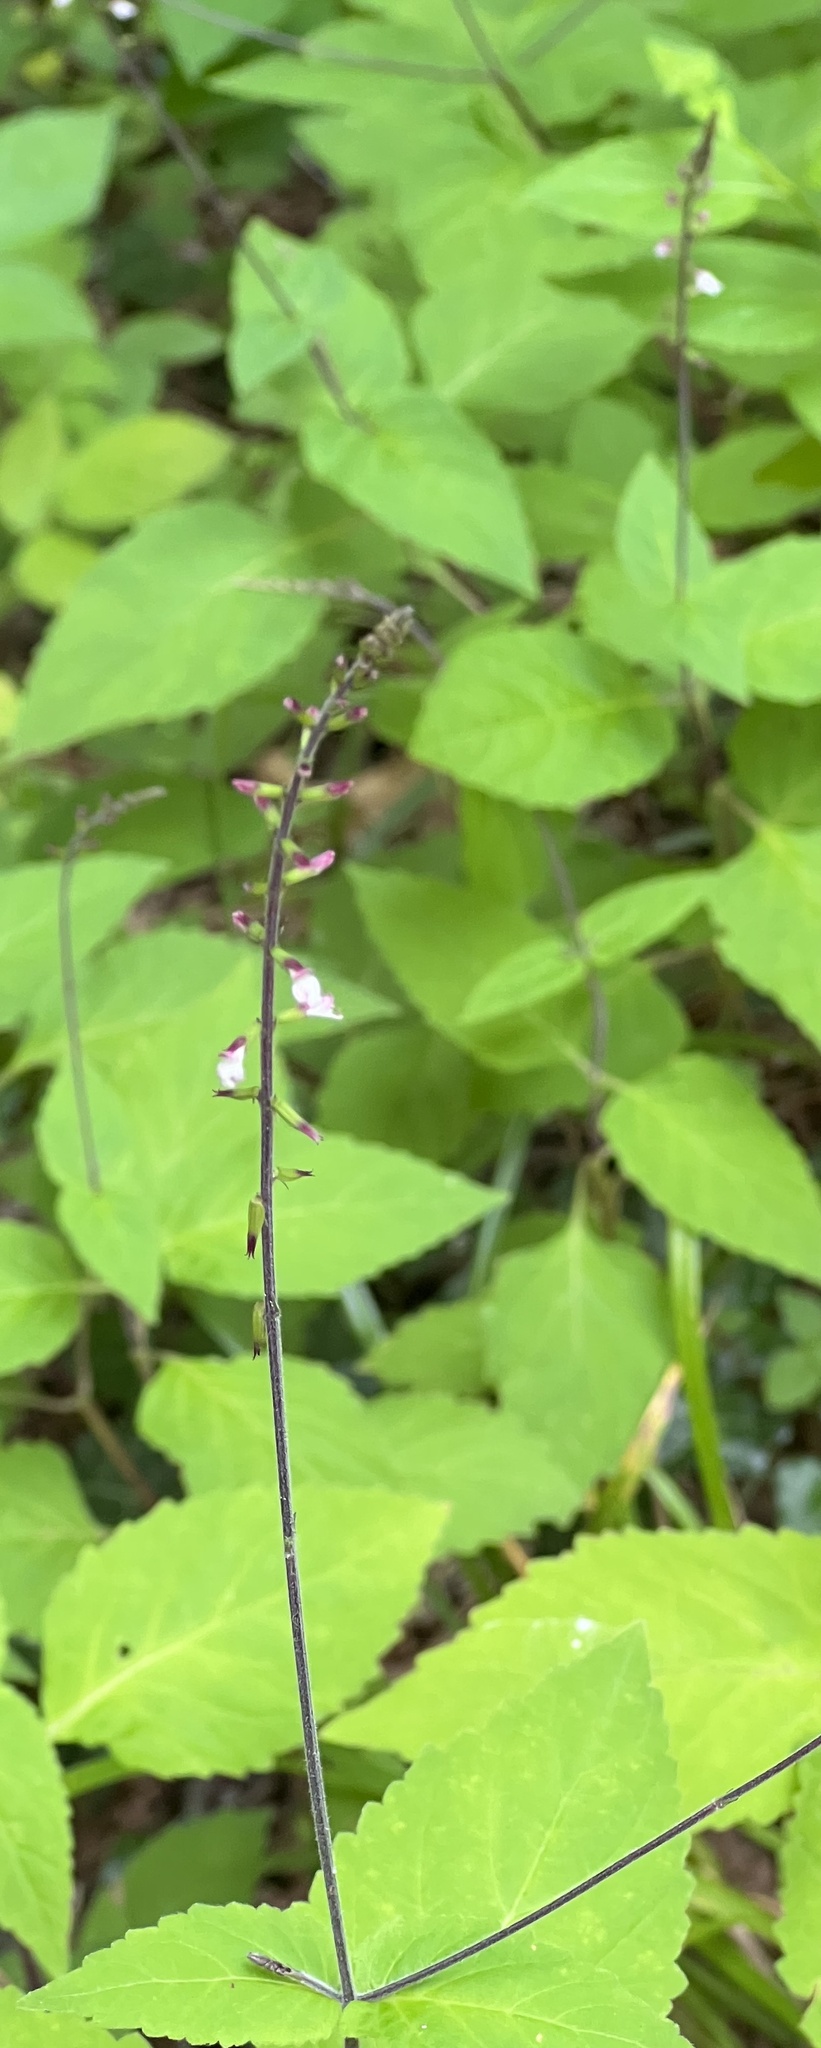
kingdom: Plantae
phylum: Tracheophyta
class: Magnoliopsida
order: Lamiales
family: Phrymaceae
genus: Phryma
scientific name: Phryma leptostachya
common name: American lopseed
